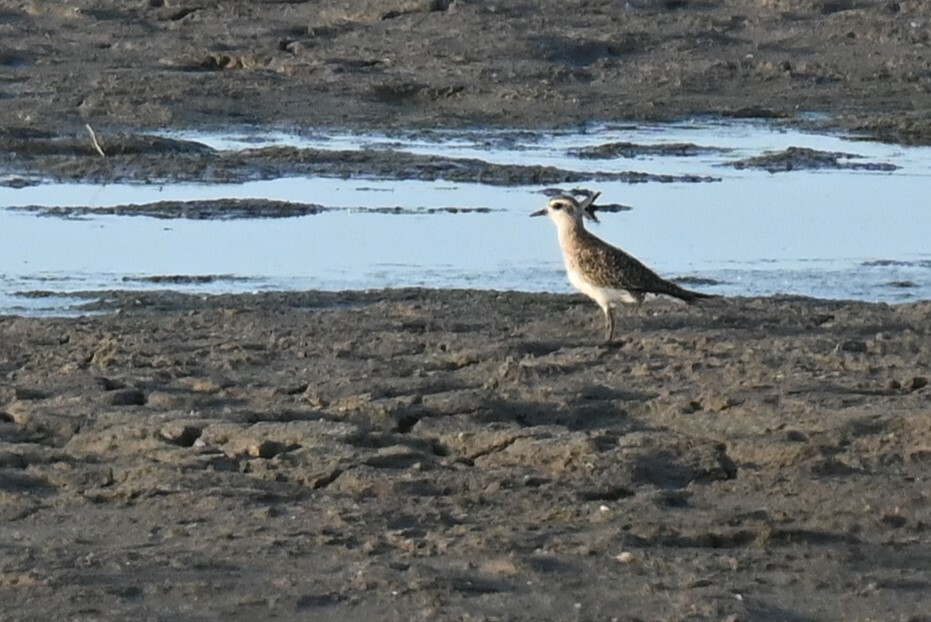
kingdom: Animalia
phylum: Chordata
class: Aves
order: Charadriiformes
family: Charadriidae
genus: Pluvialis
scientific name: Pluvialis dominica
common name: American golden plover
